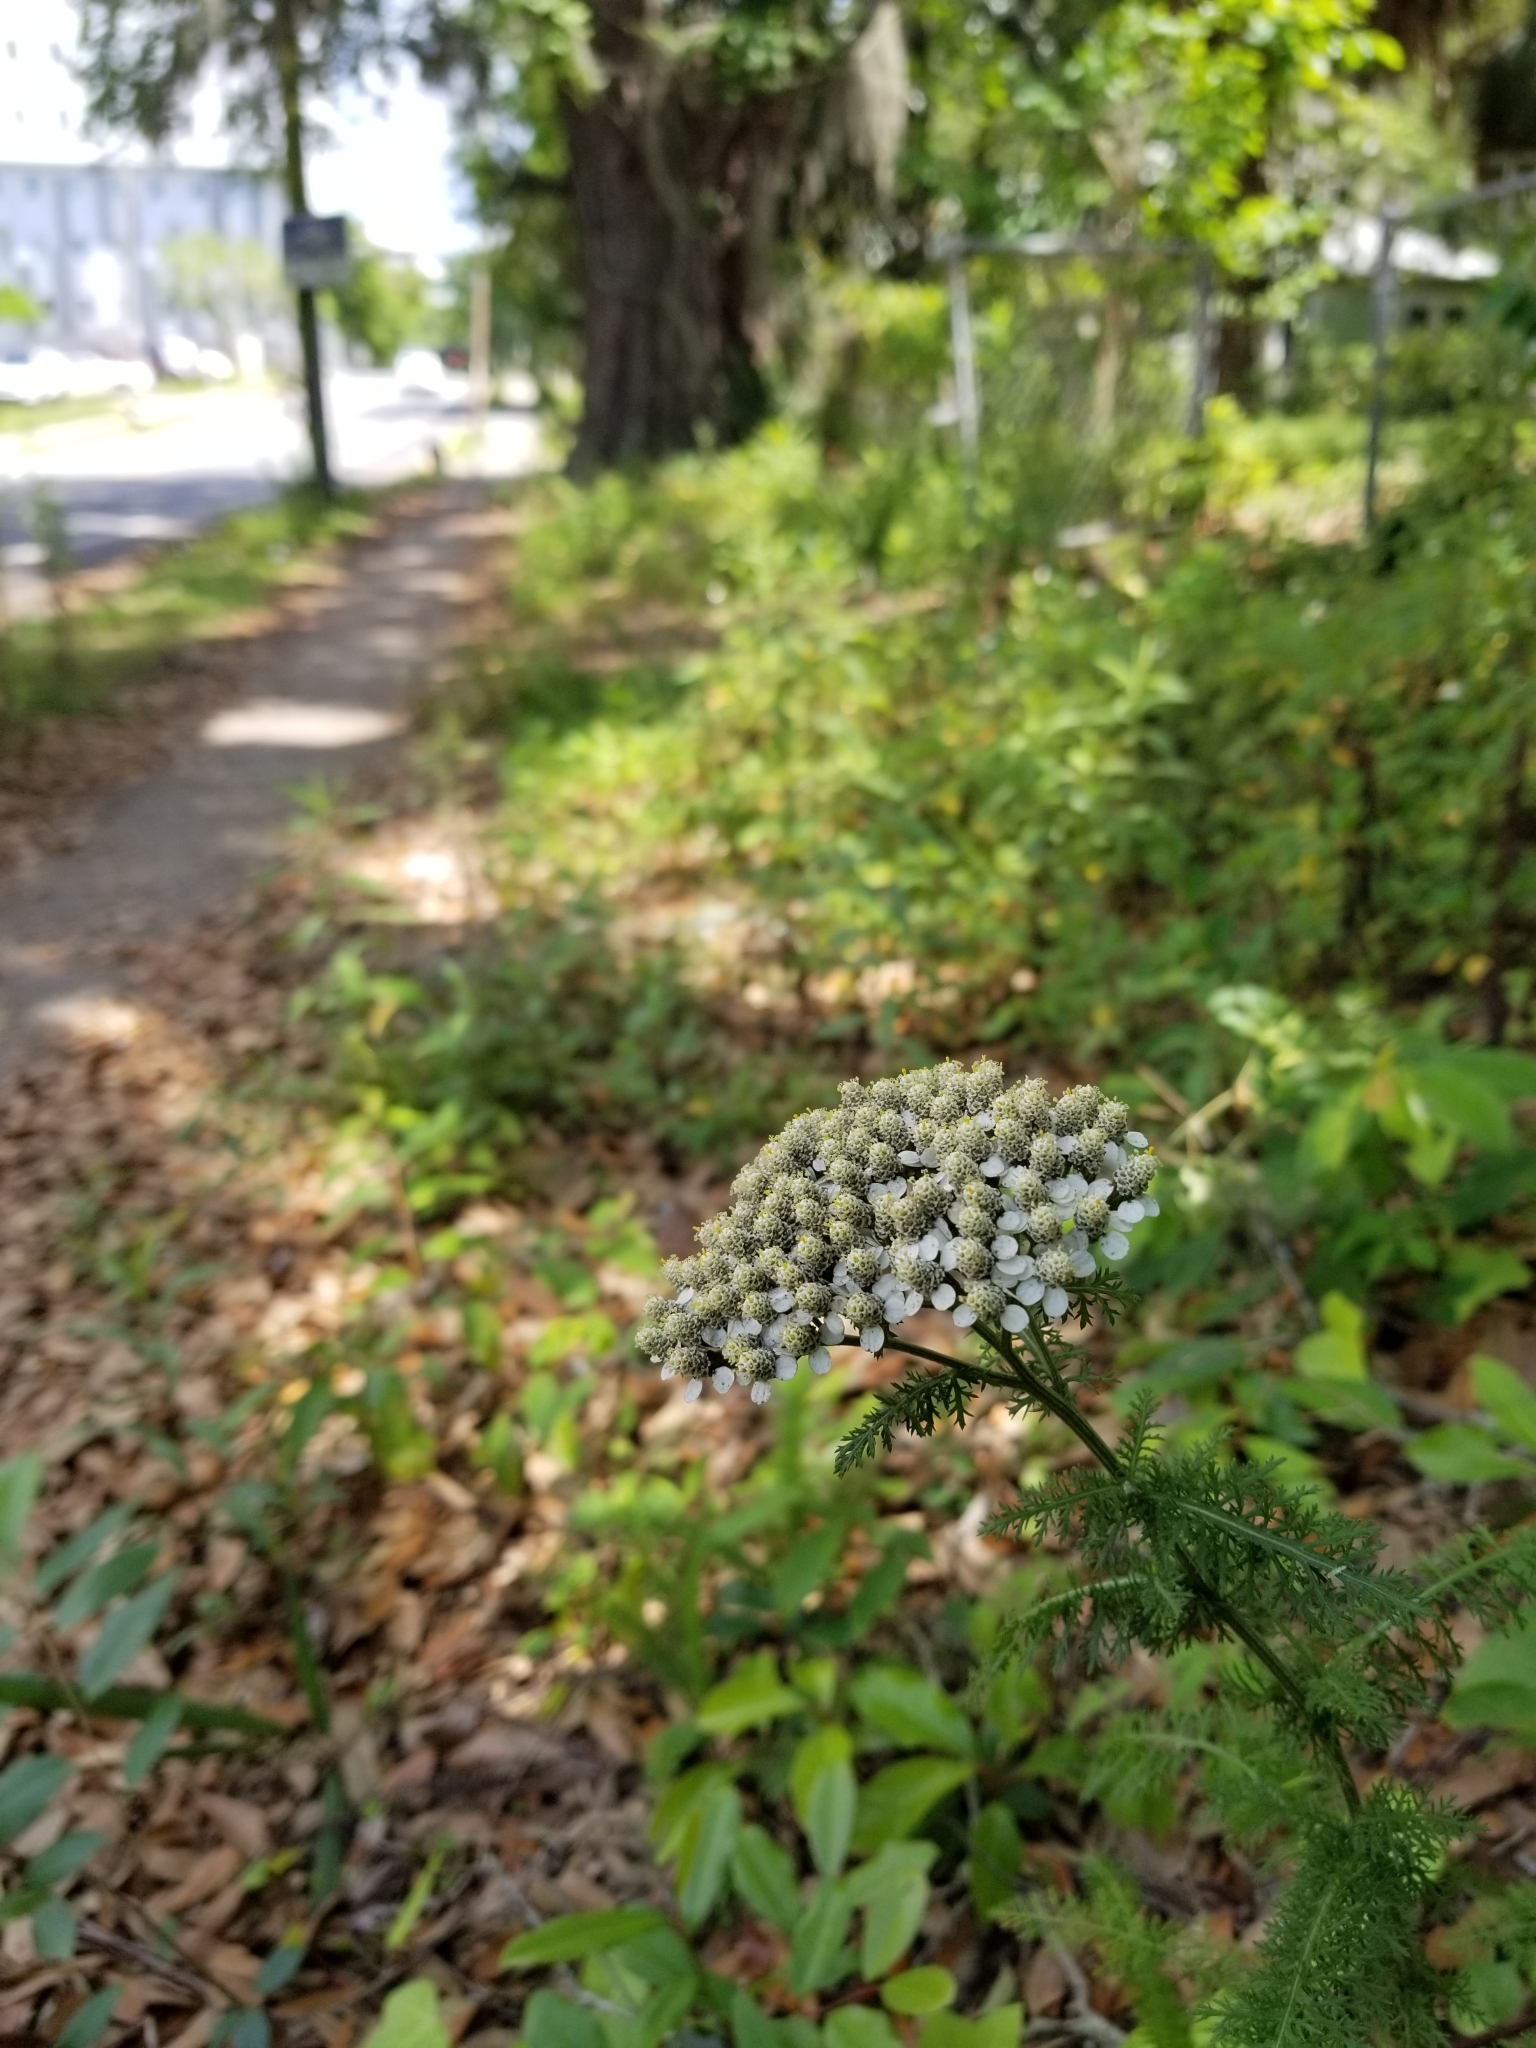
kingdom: Plantae
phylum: Tracheophyta
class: Magnoliopsida
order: Asterales
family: Asteraceae
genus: Achillea
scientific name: Achillea millefolium
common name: Yarrow
